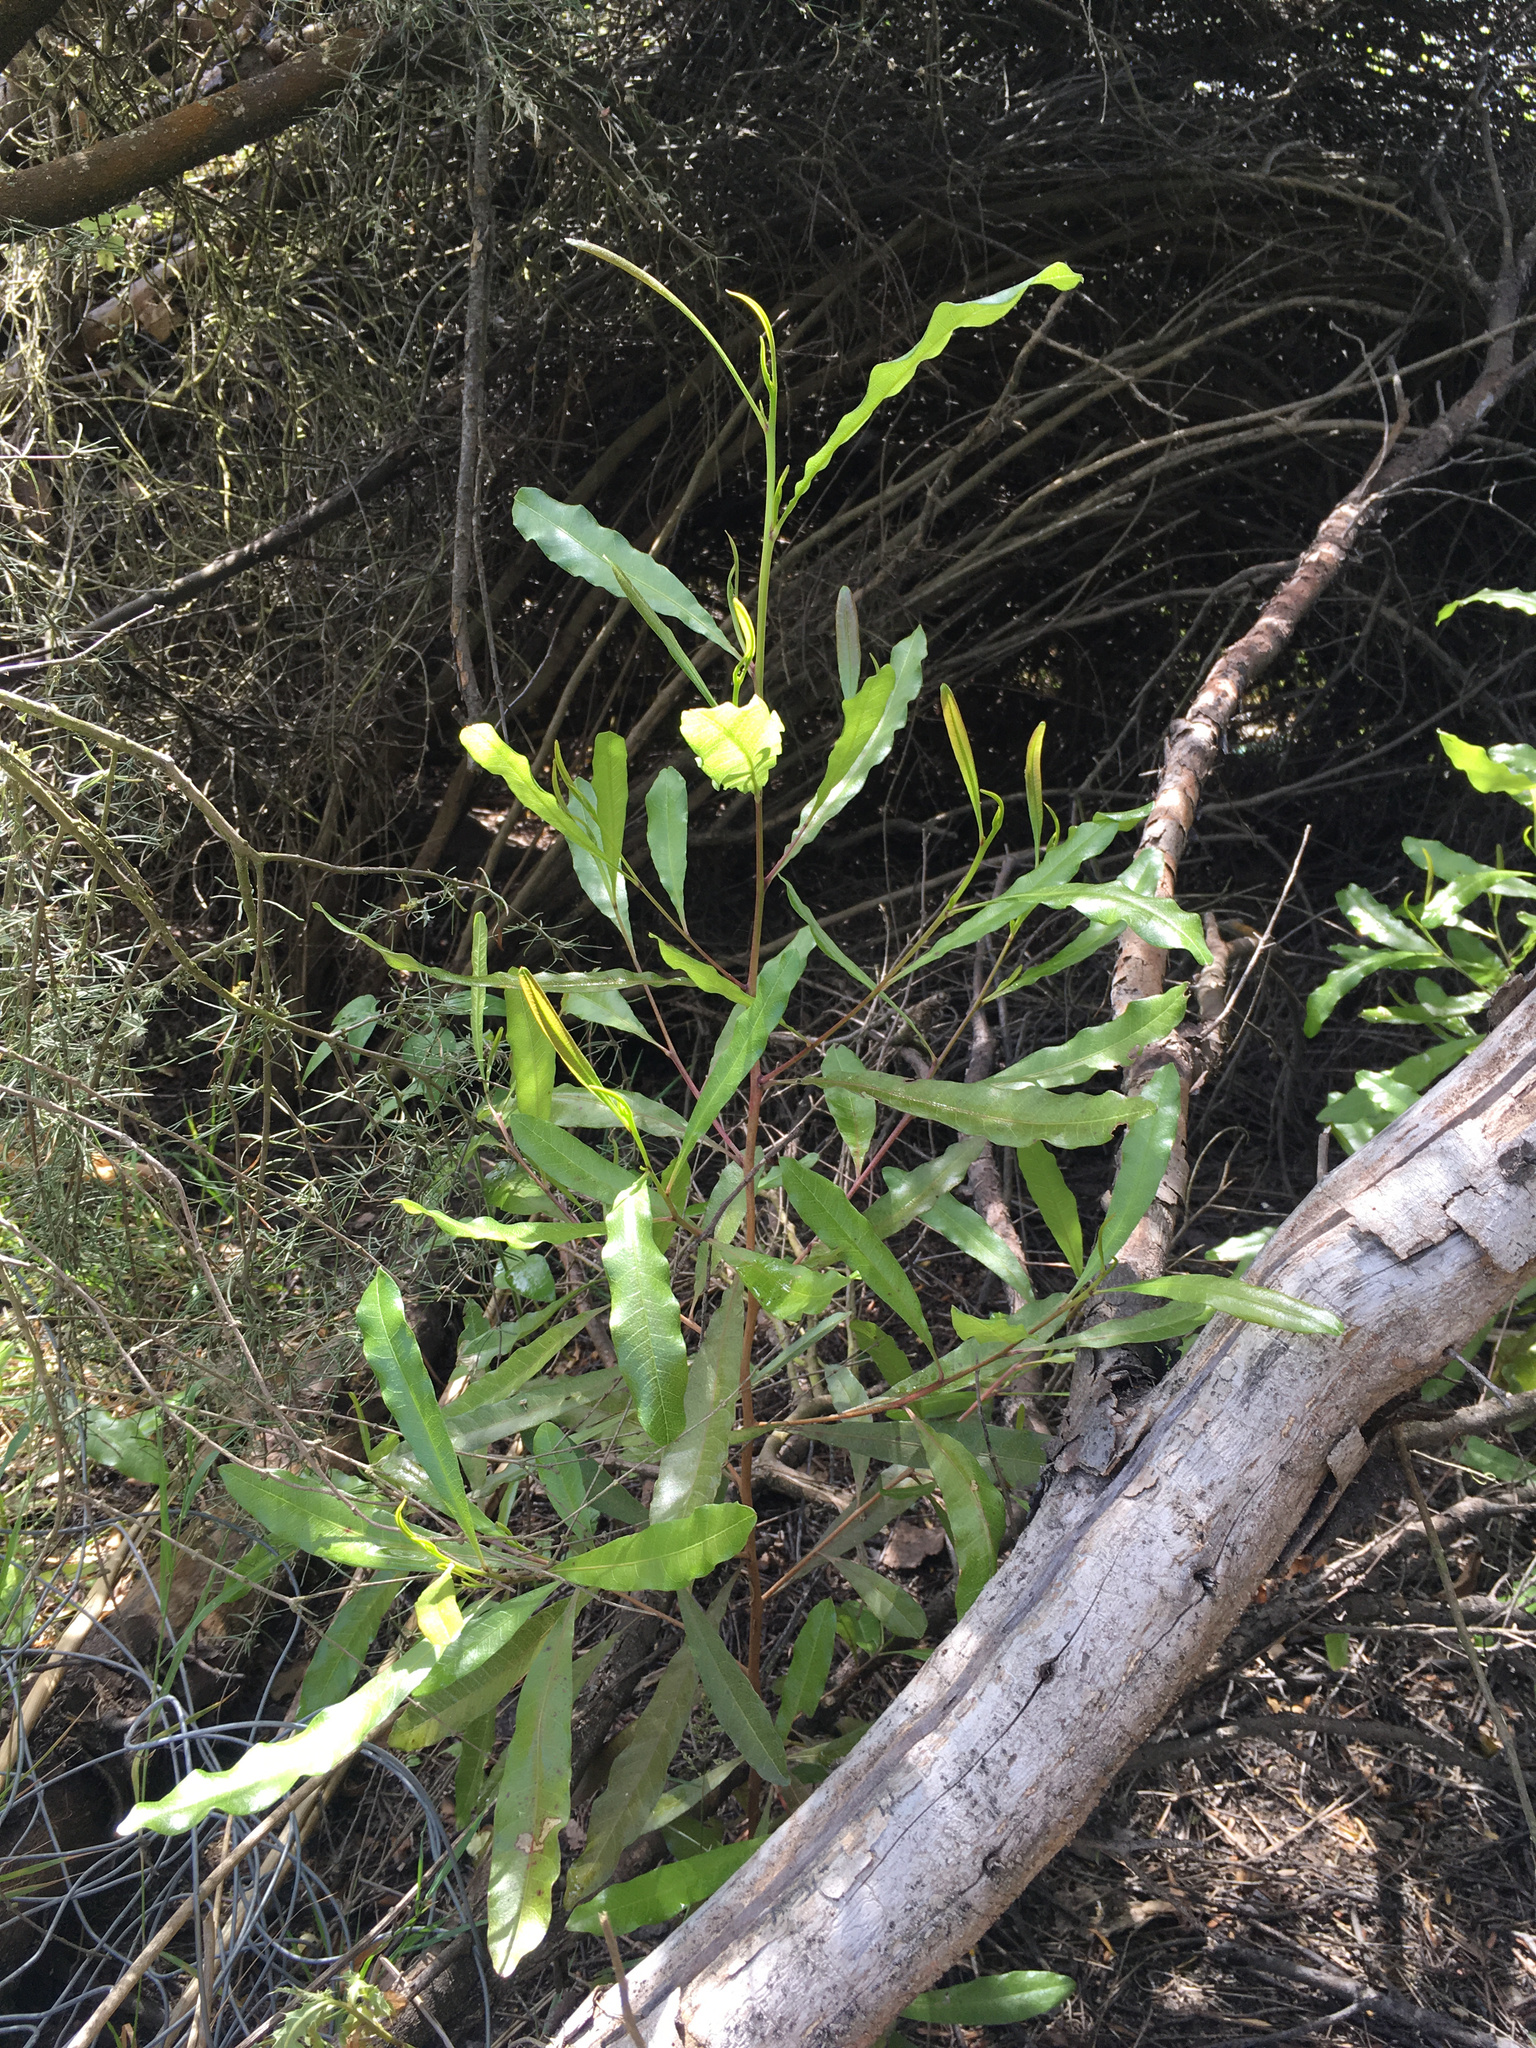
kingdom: Plantae
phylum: Tracheophyta
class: Magnoliopsida
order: Sapindales
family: Sapindaceae
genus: Dodonaea
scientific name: Dodonaea viscosa
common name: Hopbush
